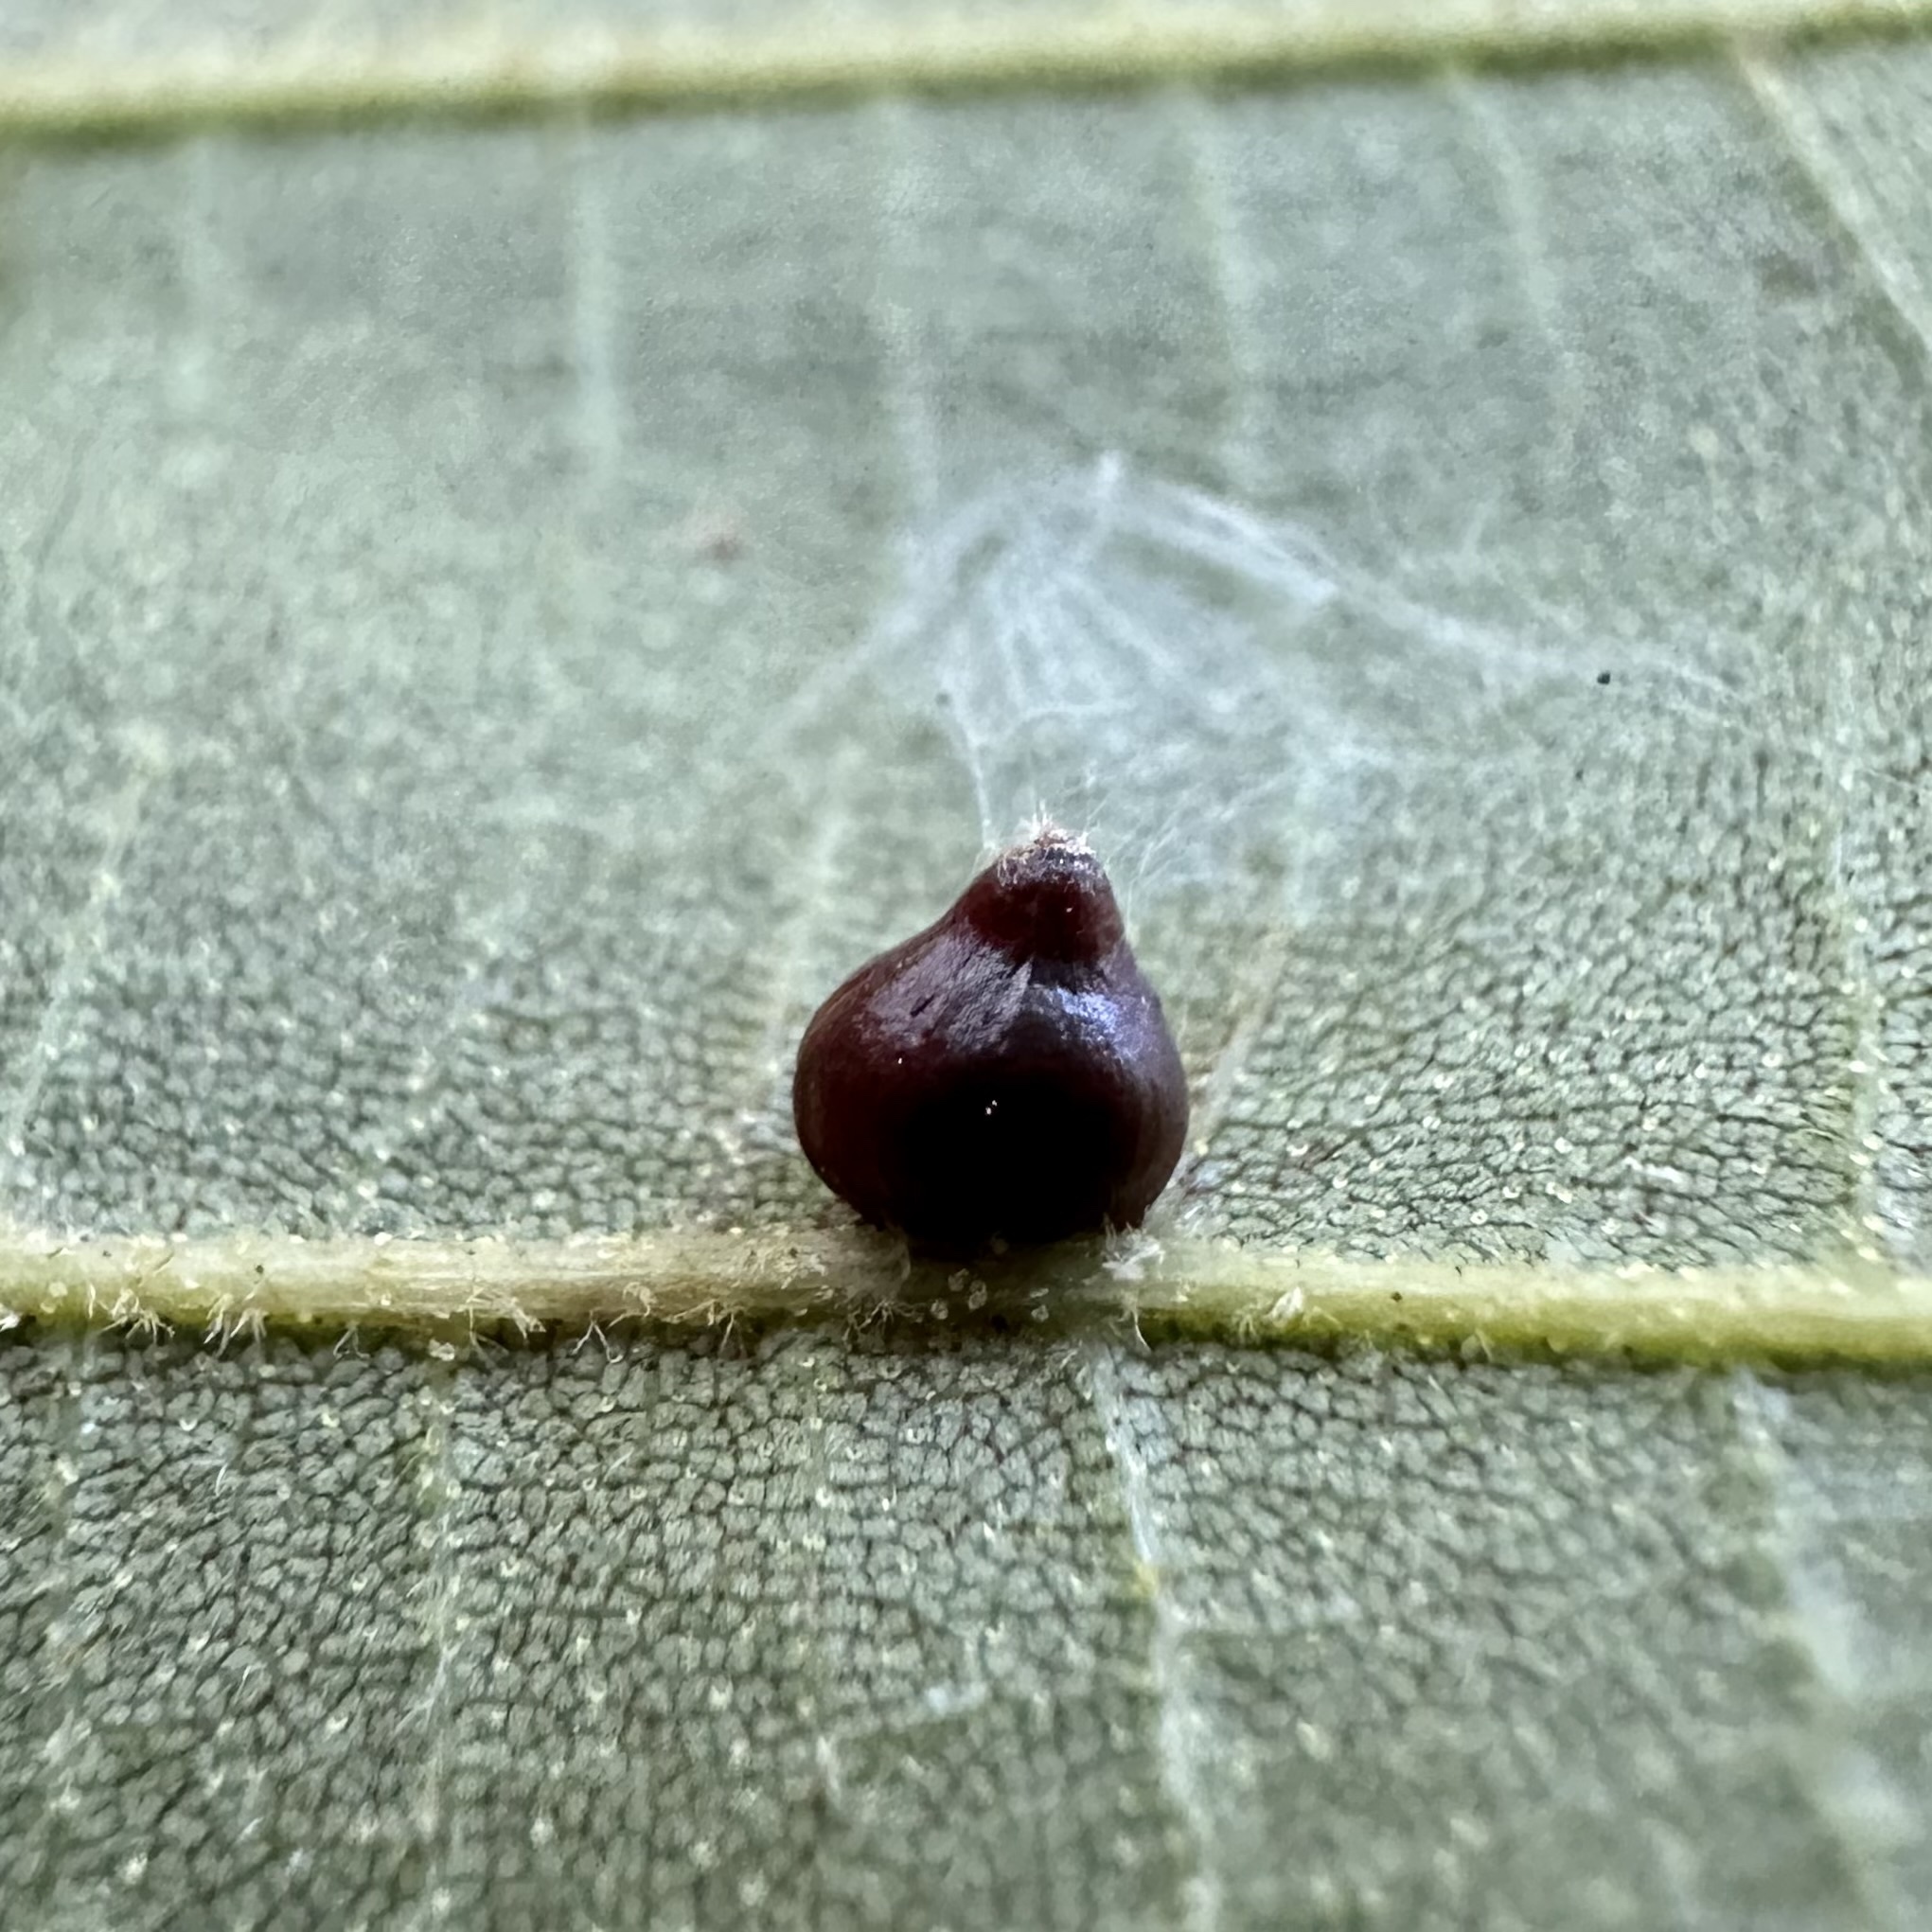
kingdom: Animalia
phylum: Arthropoda
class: Insecta
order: Diptera
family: Cecidomyiidae
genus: Caryomyia
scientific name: Caryomyia shmoo
